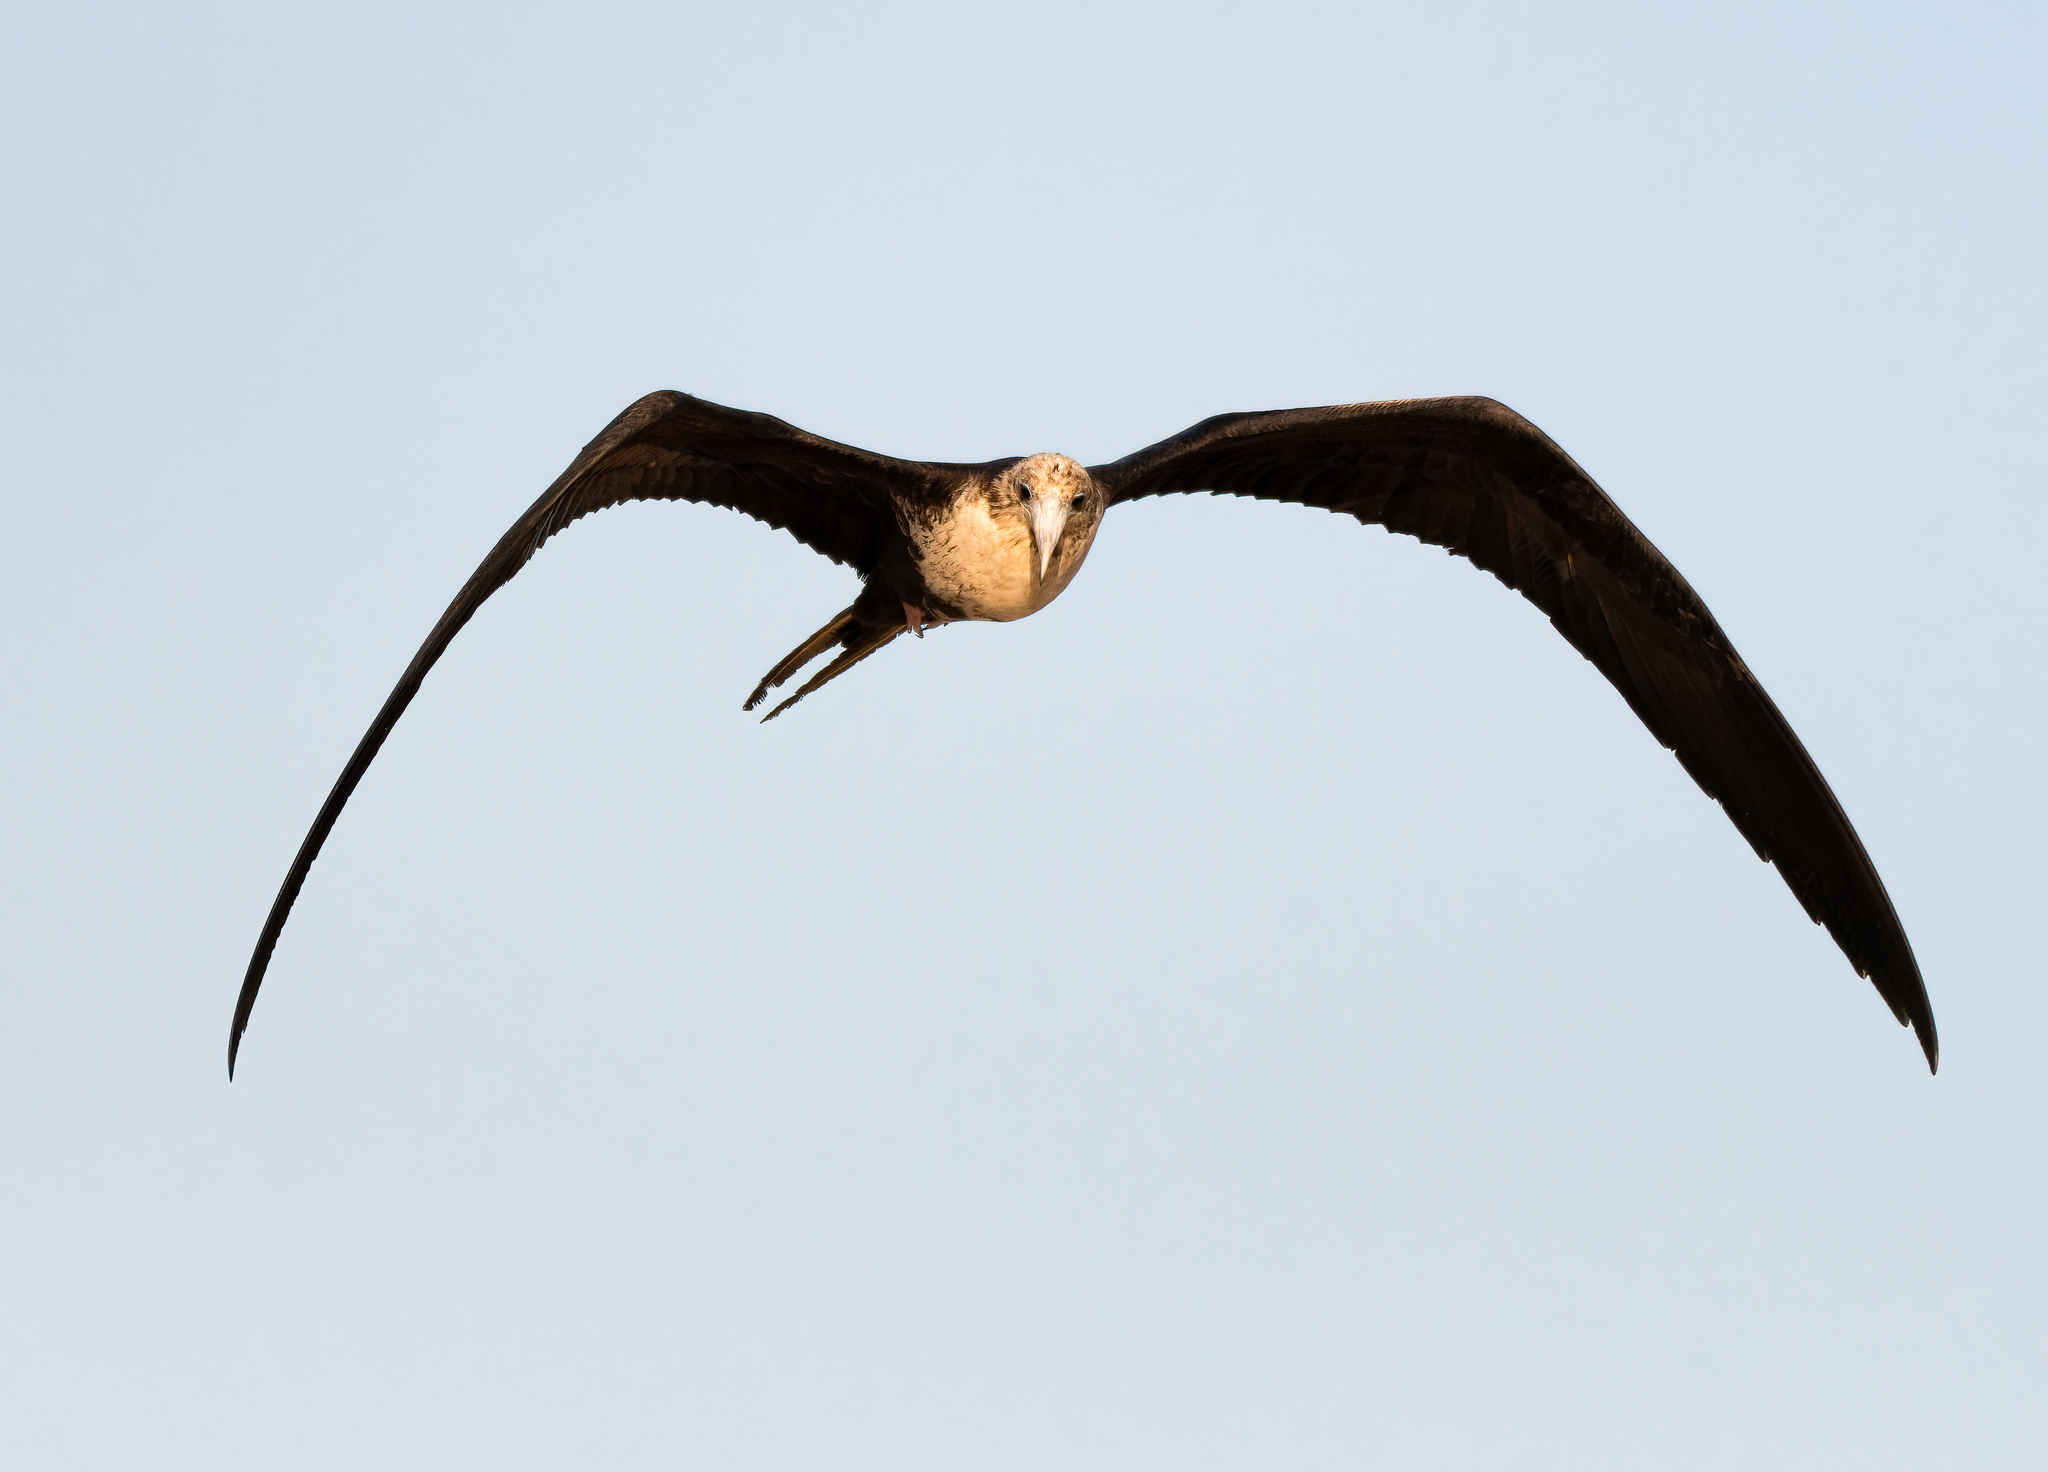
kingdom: Animalia
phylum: Chordata
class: Aves
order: Suliformes
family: Fregatidae
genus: Fregata
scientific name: Fregata magnificens
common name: Magnificent frigatebird
